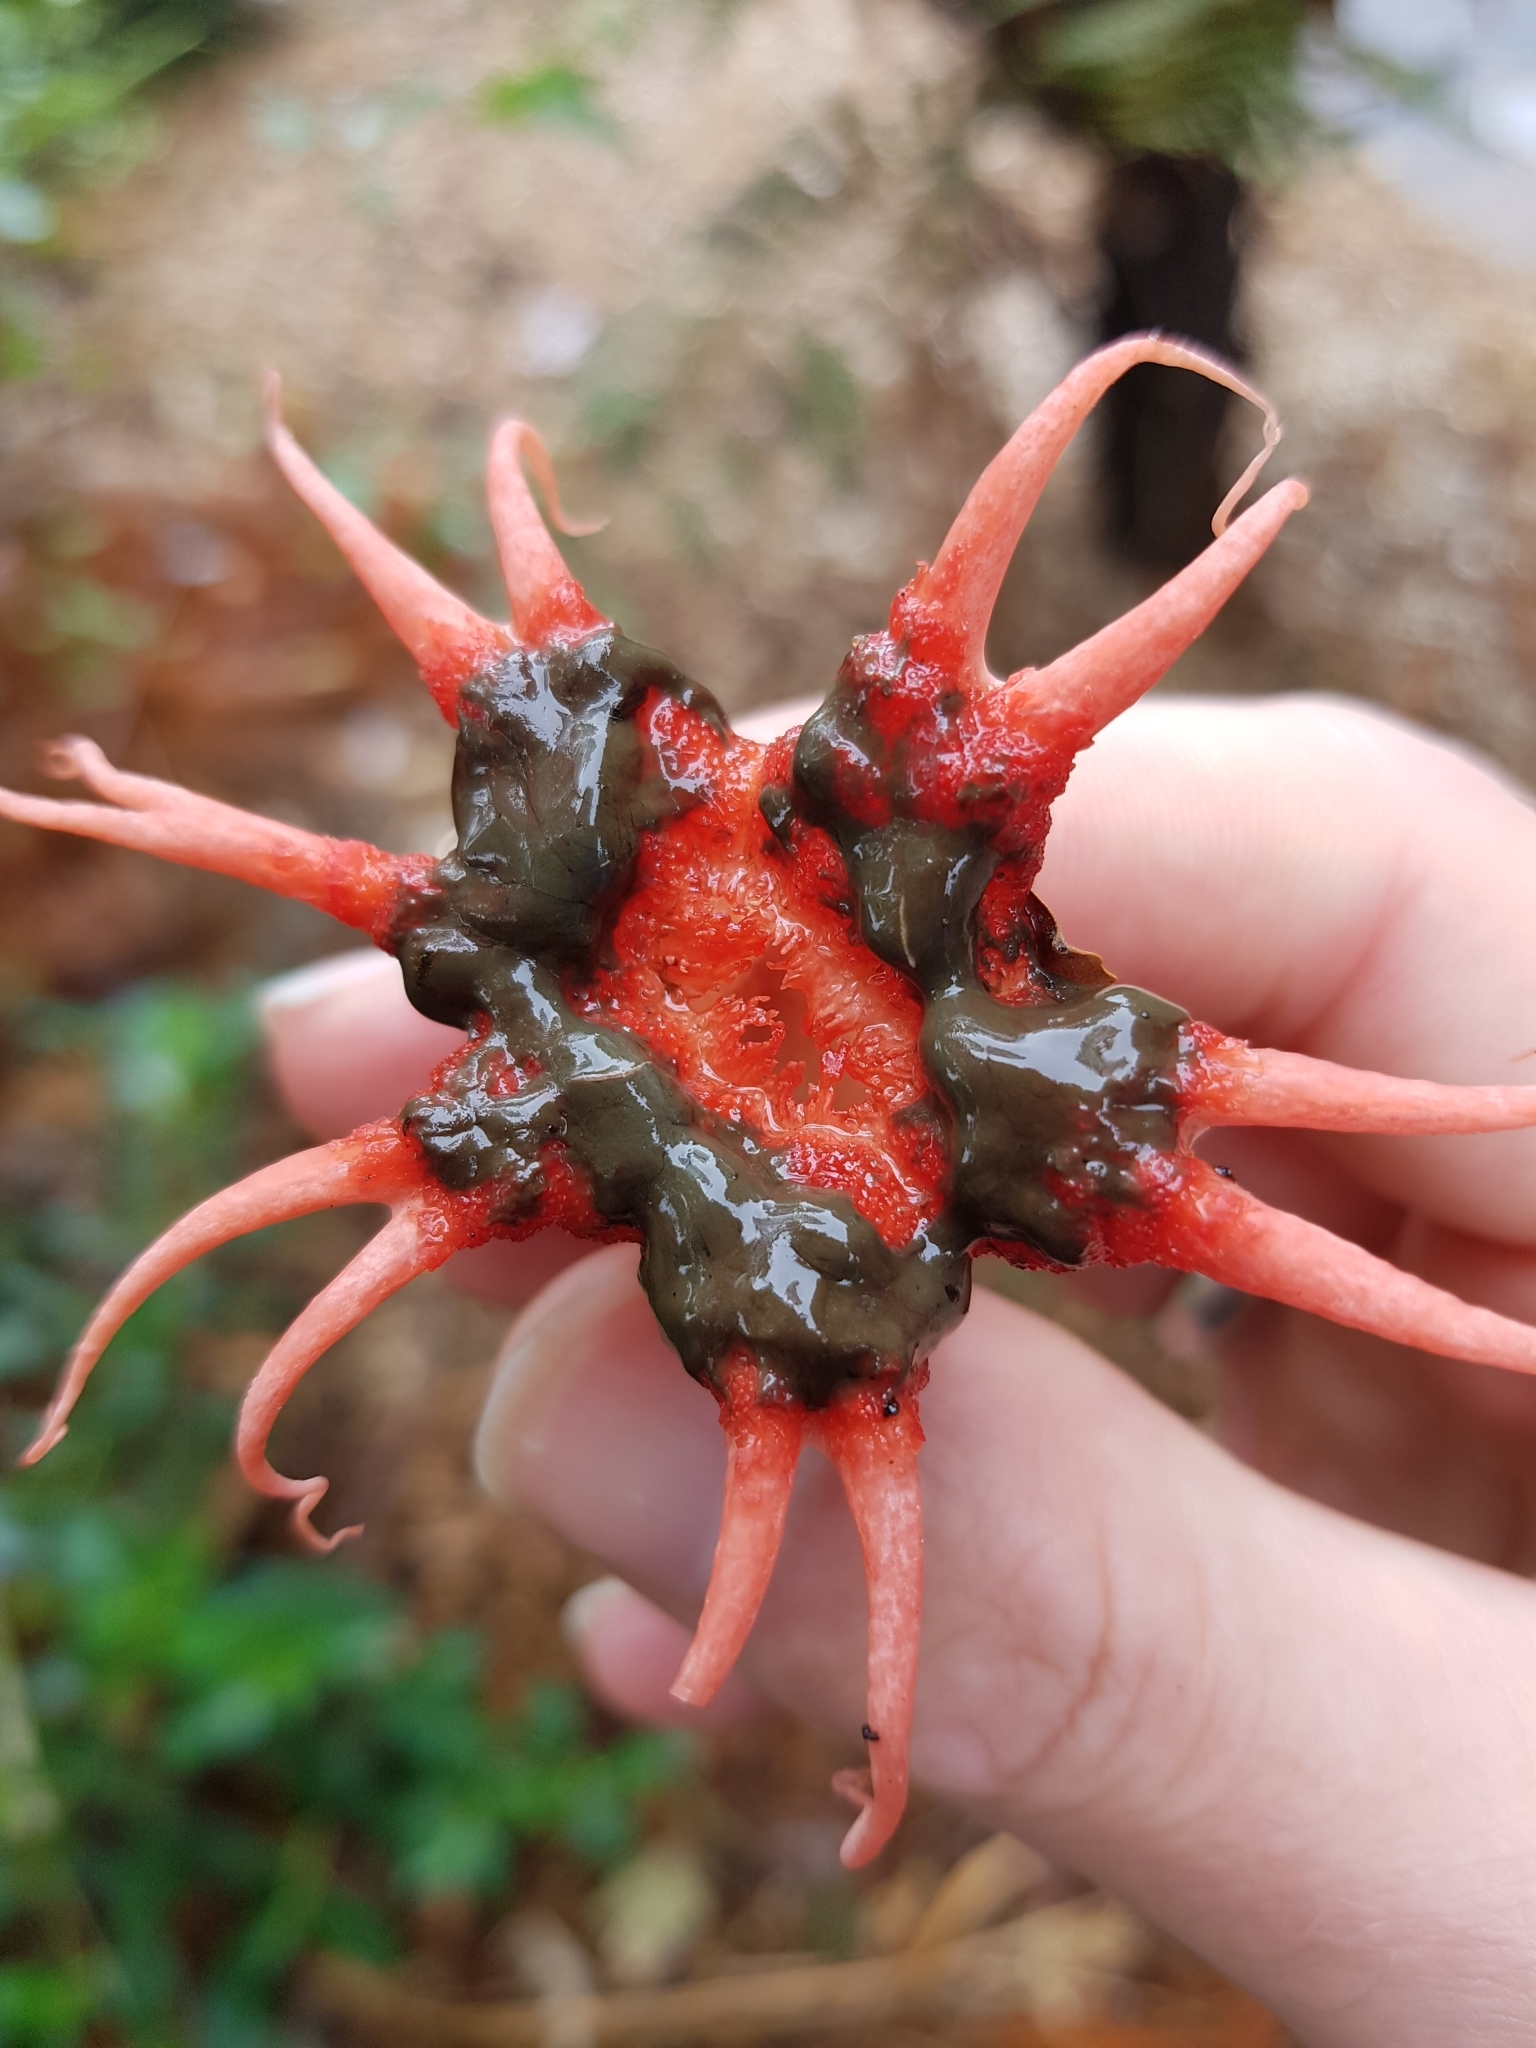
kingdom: Fungi
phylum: Basidiomycota
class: Agaricomycetes
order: Phallales
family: Phallaceae
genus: Aseroe
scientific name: Aseroe rubra
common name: Starfish fungus
